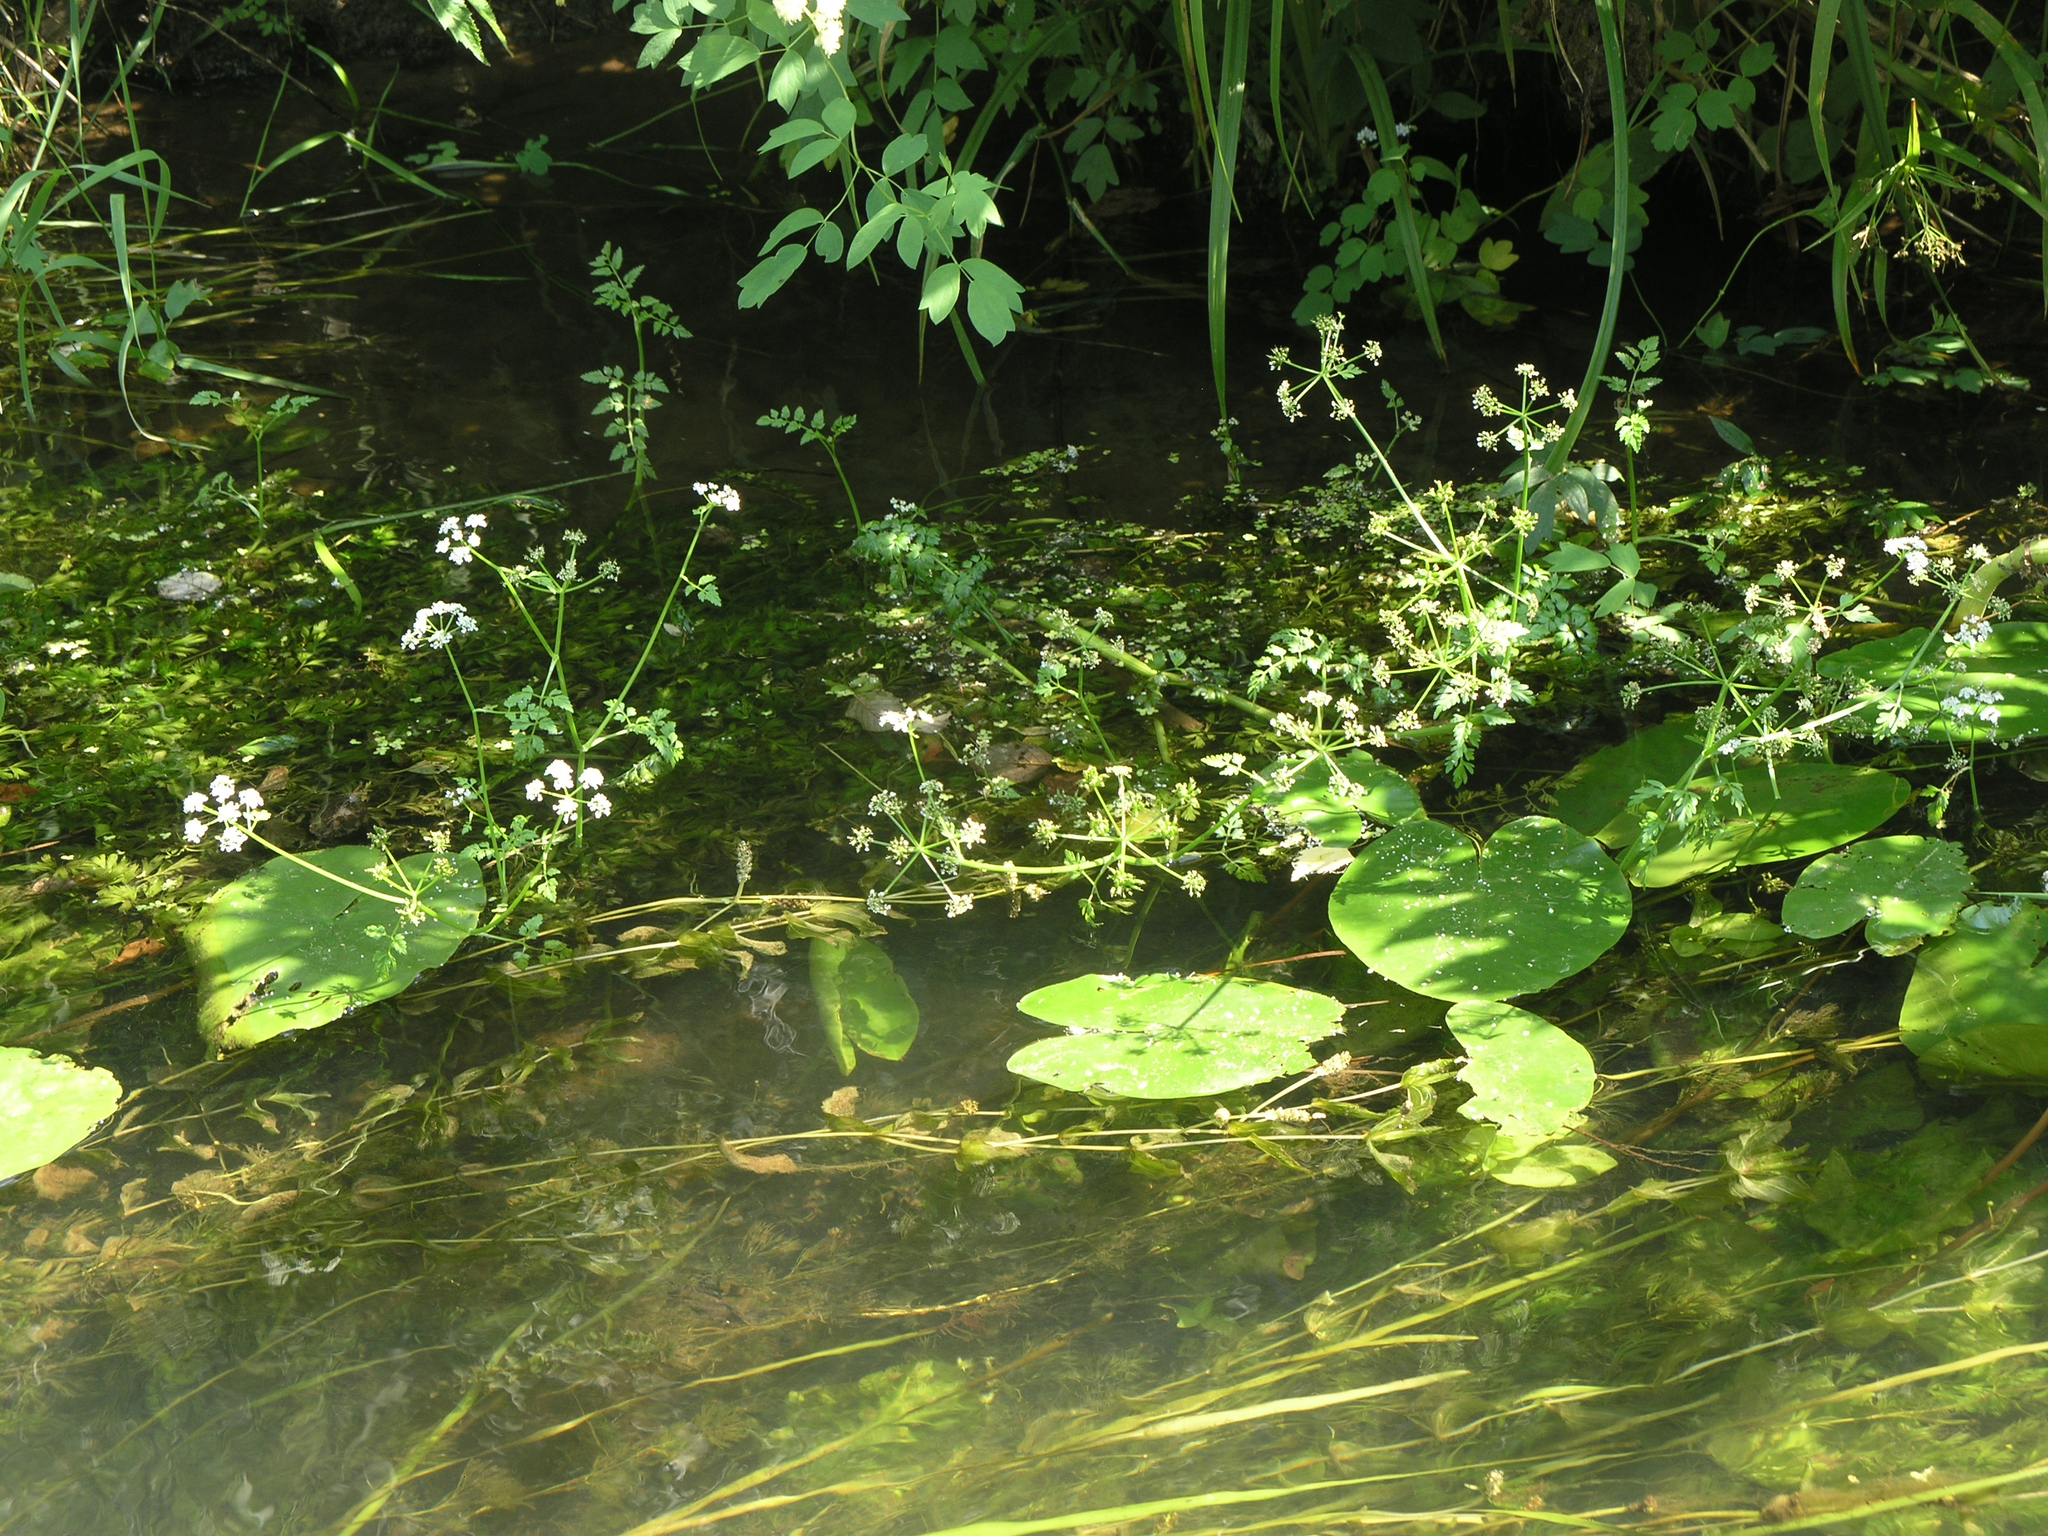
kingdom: Plantae
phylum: Tracheophyta
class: Magnoliopsida
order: Apiales
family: Apiaceae
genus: Oenanthe
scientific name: Oenanthe aquatica
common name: Fine-leaved water-dropwort
